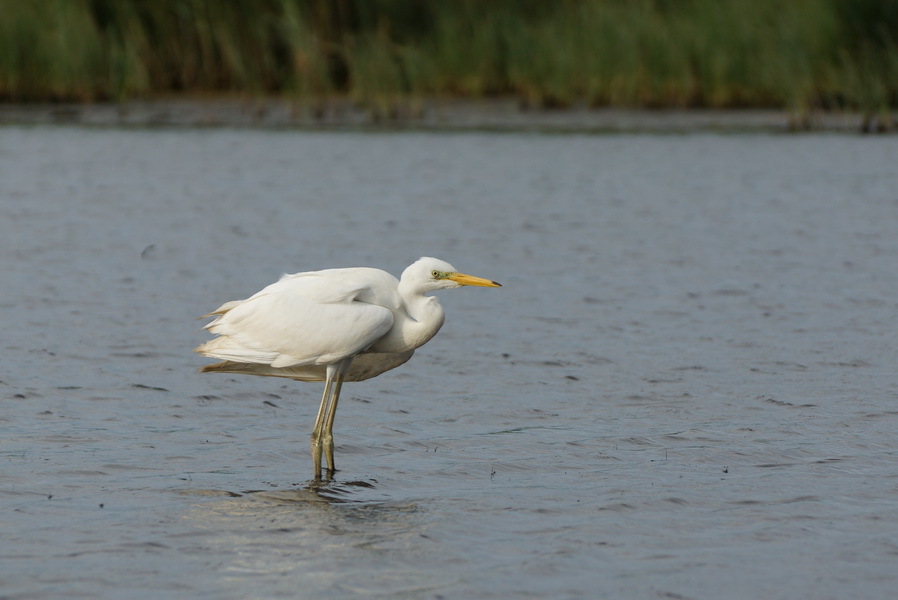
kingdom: Animalia
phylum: Chordata
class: Aves
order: Pelecaniformes
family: Ardeidae
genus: Ardea
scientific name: Ardea alba
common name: Great egret
